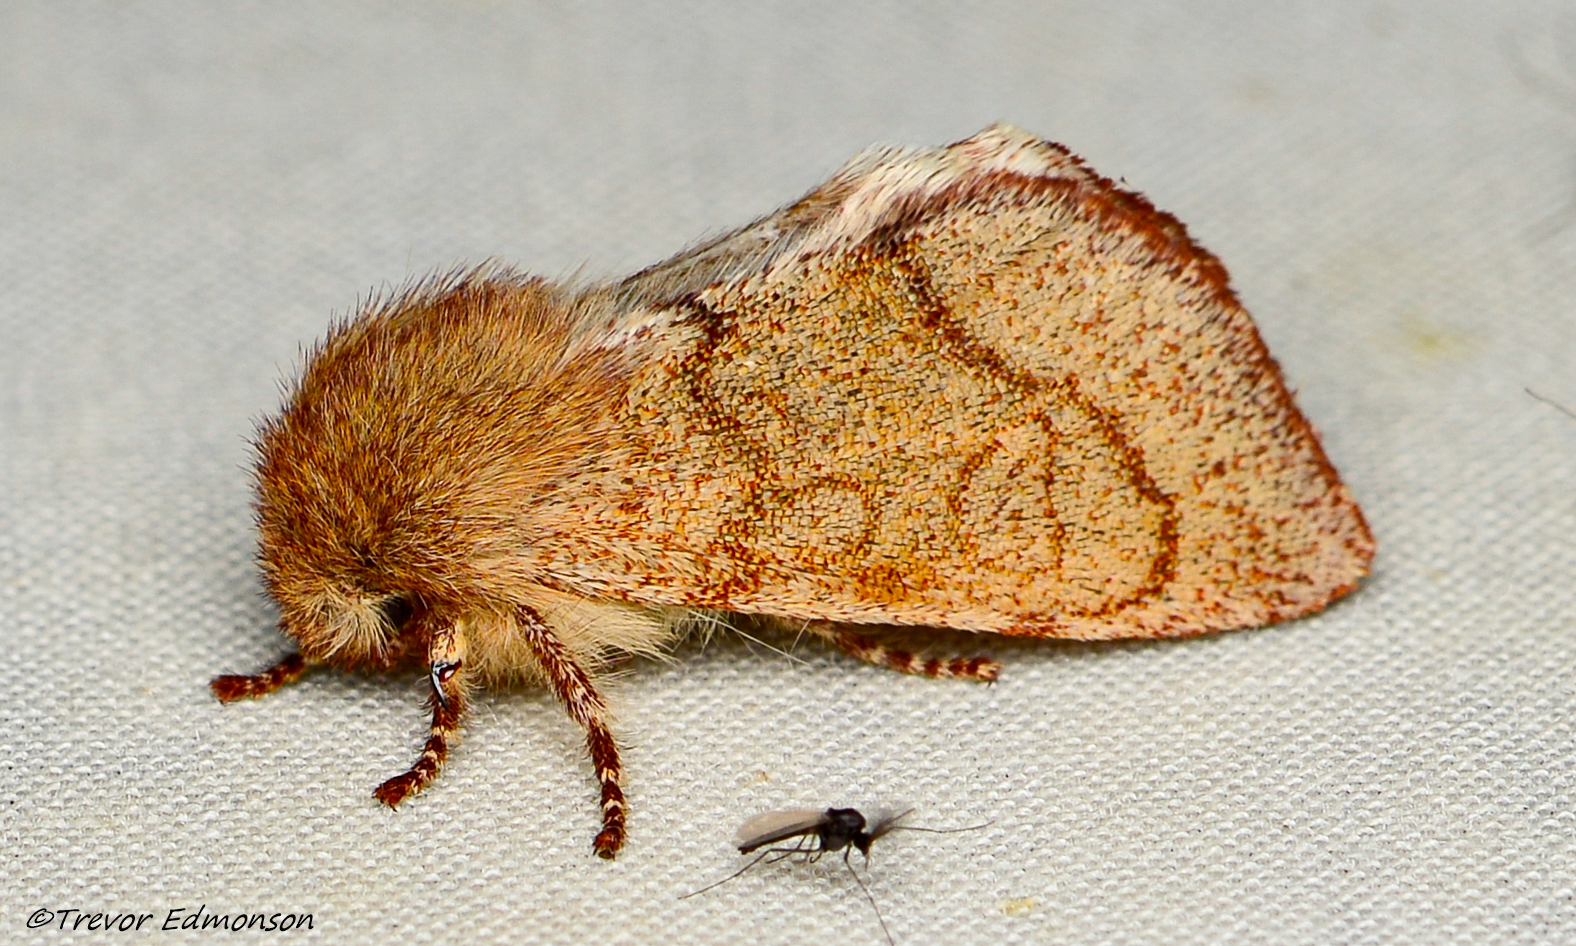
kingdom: Animalia
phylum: Arthropoda
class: Insecta
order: Lepidoptera
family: Noctuidae
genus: Psaphida
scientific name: Psaphida styracis
